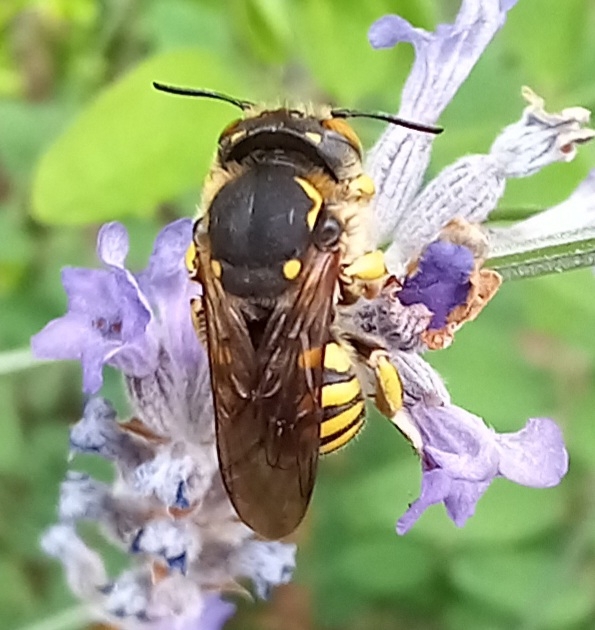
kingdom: Animalia
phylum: Arthropoda
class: Insecta
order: Hymenoptera
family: Megachilidae
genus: Anthidium
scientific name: Anthidium florentinum
